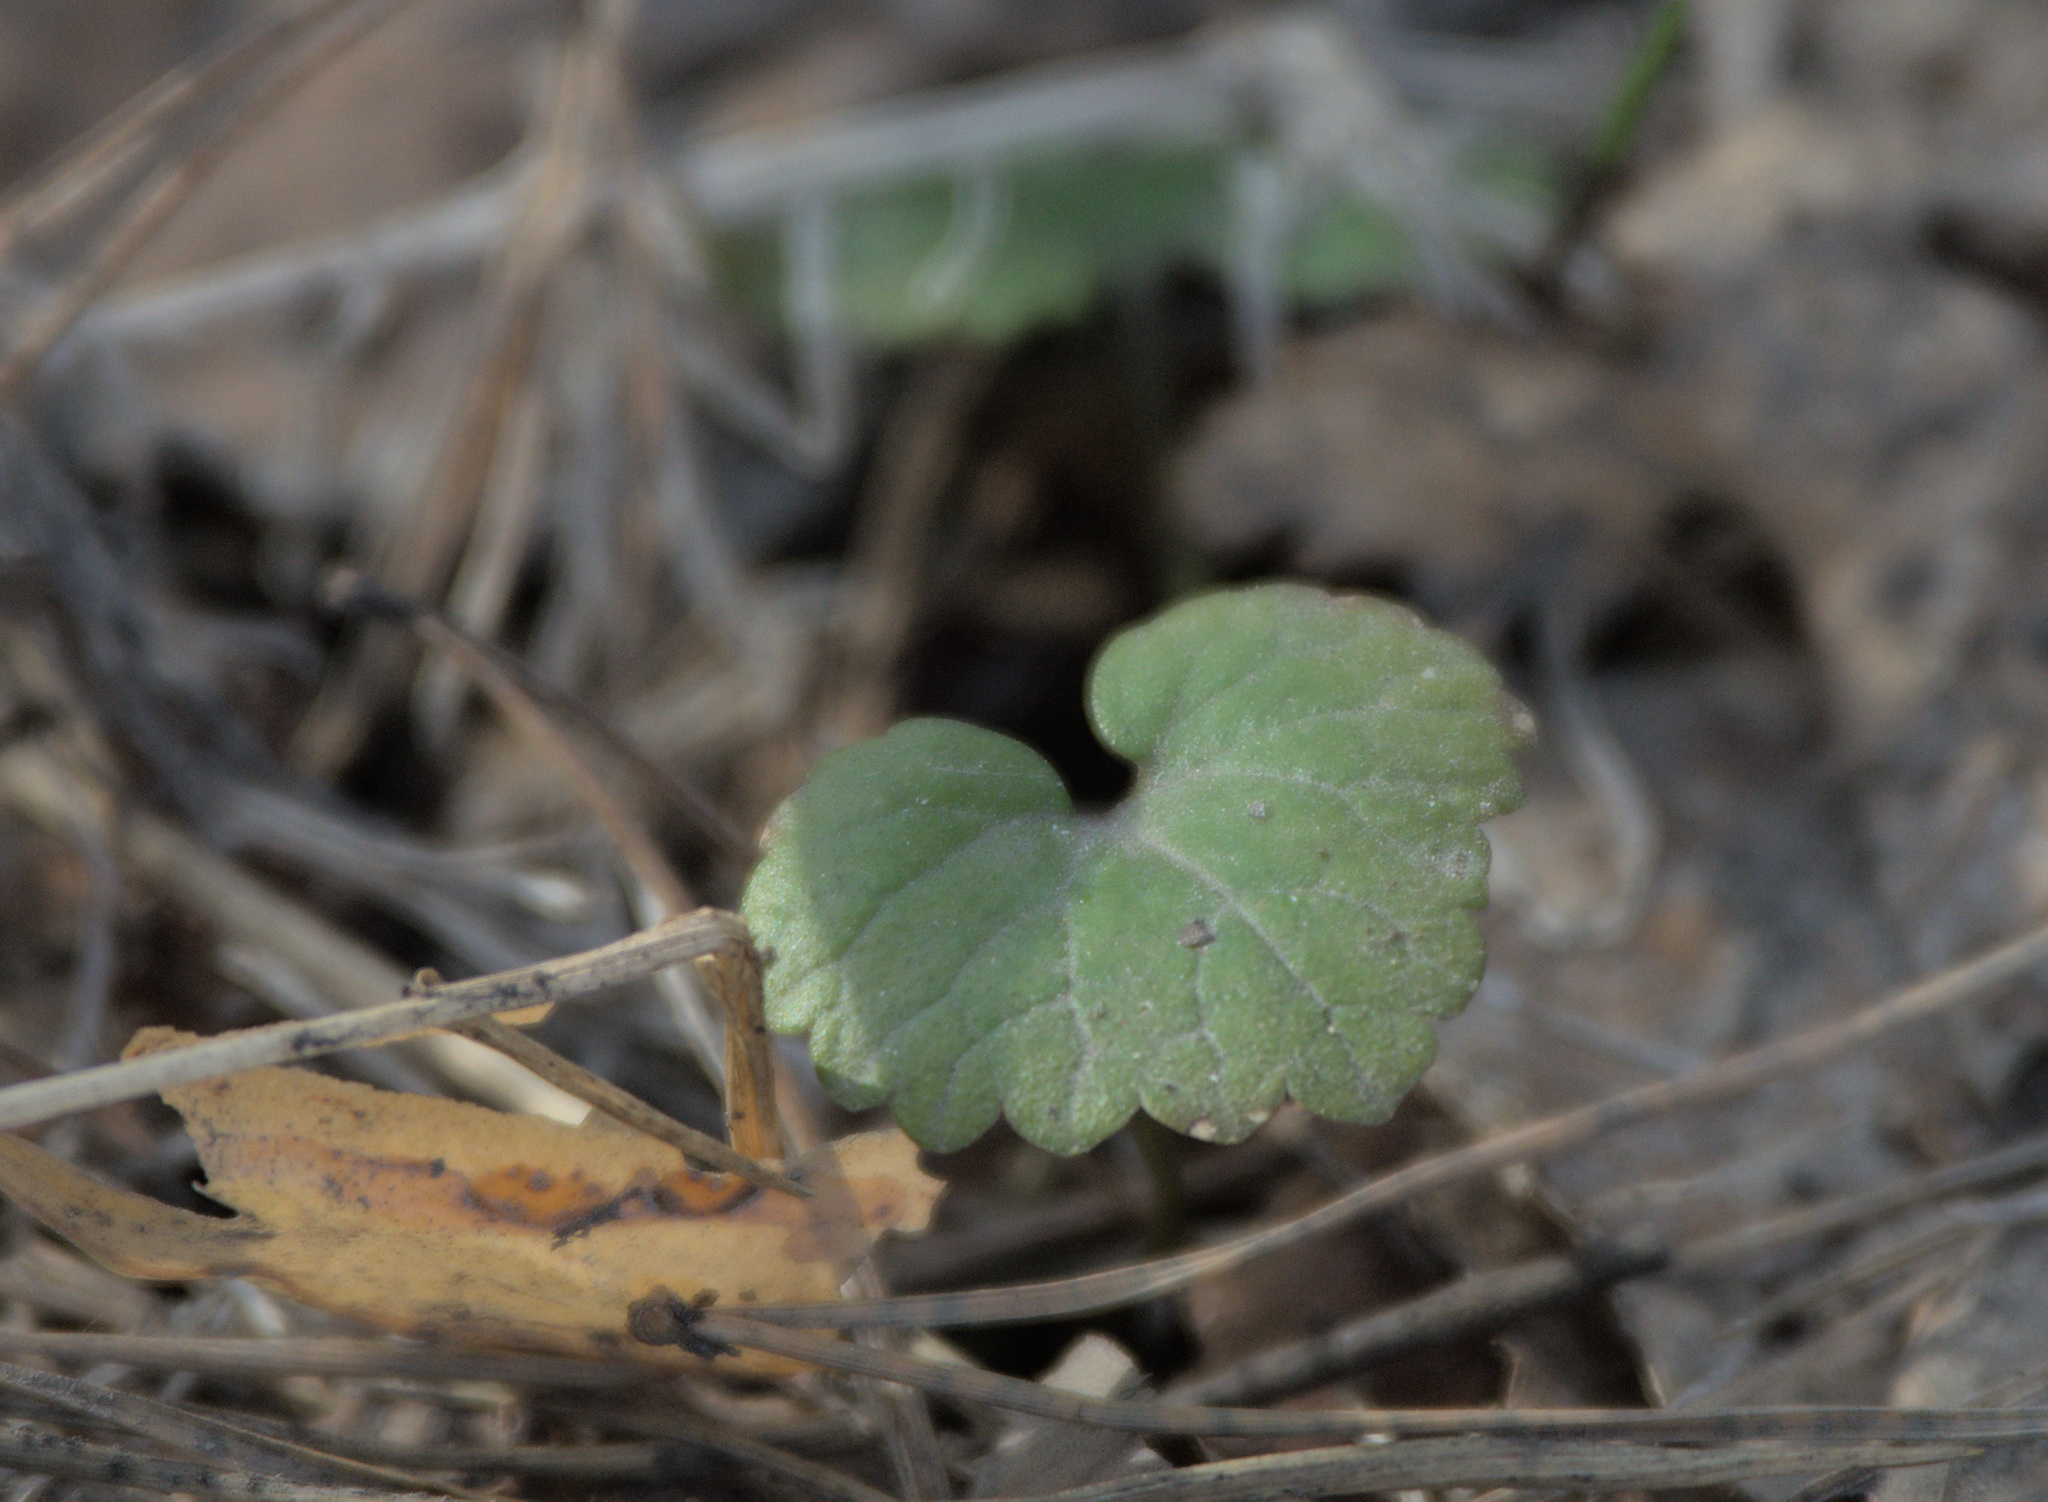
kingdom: Plantae
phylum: Tracheophyta
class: Magnoliopsida
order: Lamiales
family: Lamiaceae
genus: Glechoma
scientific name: Glechoma hederacea
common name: Ground ivy
